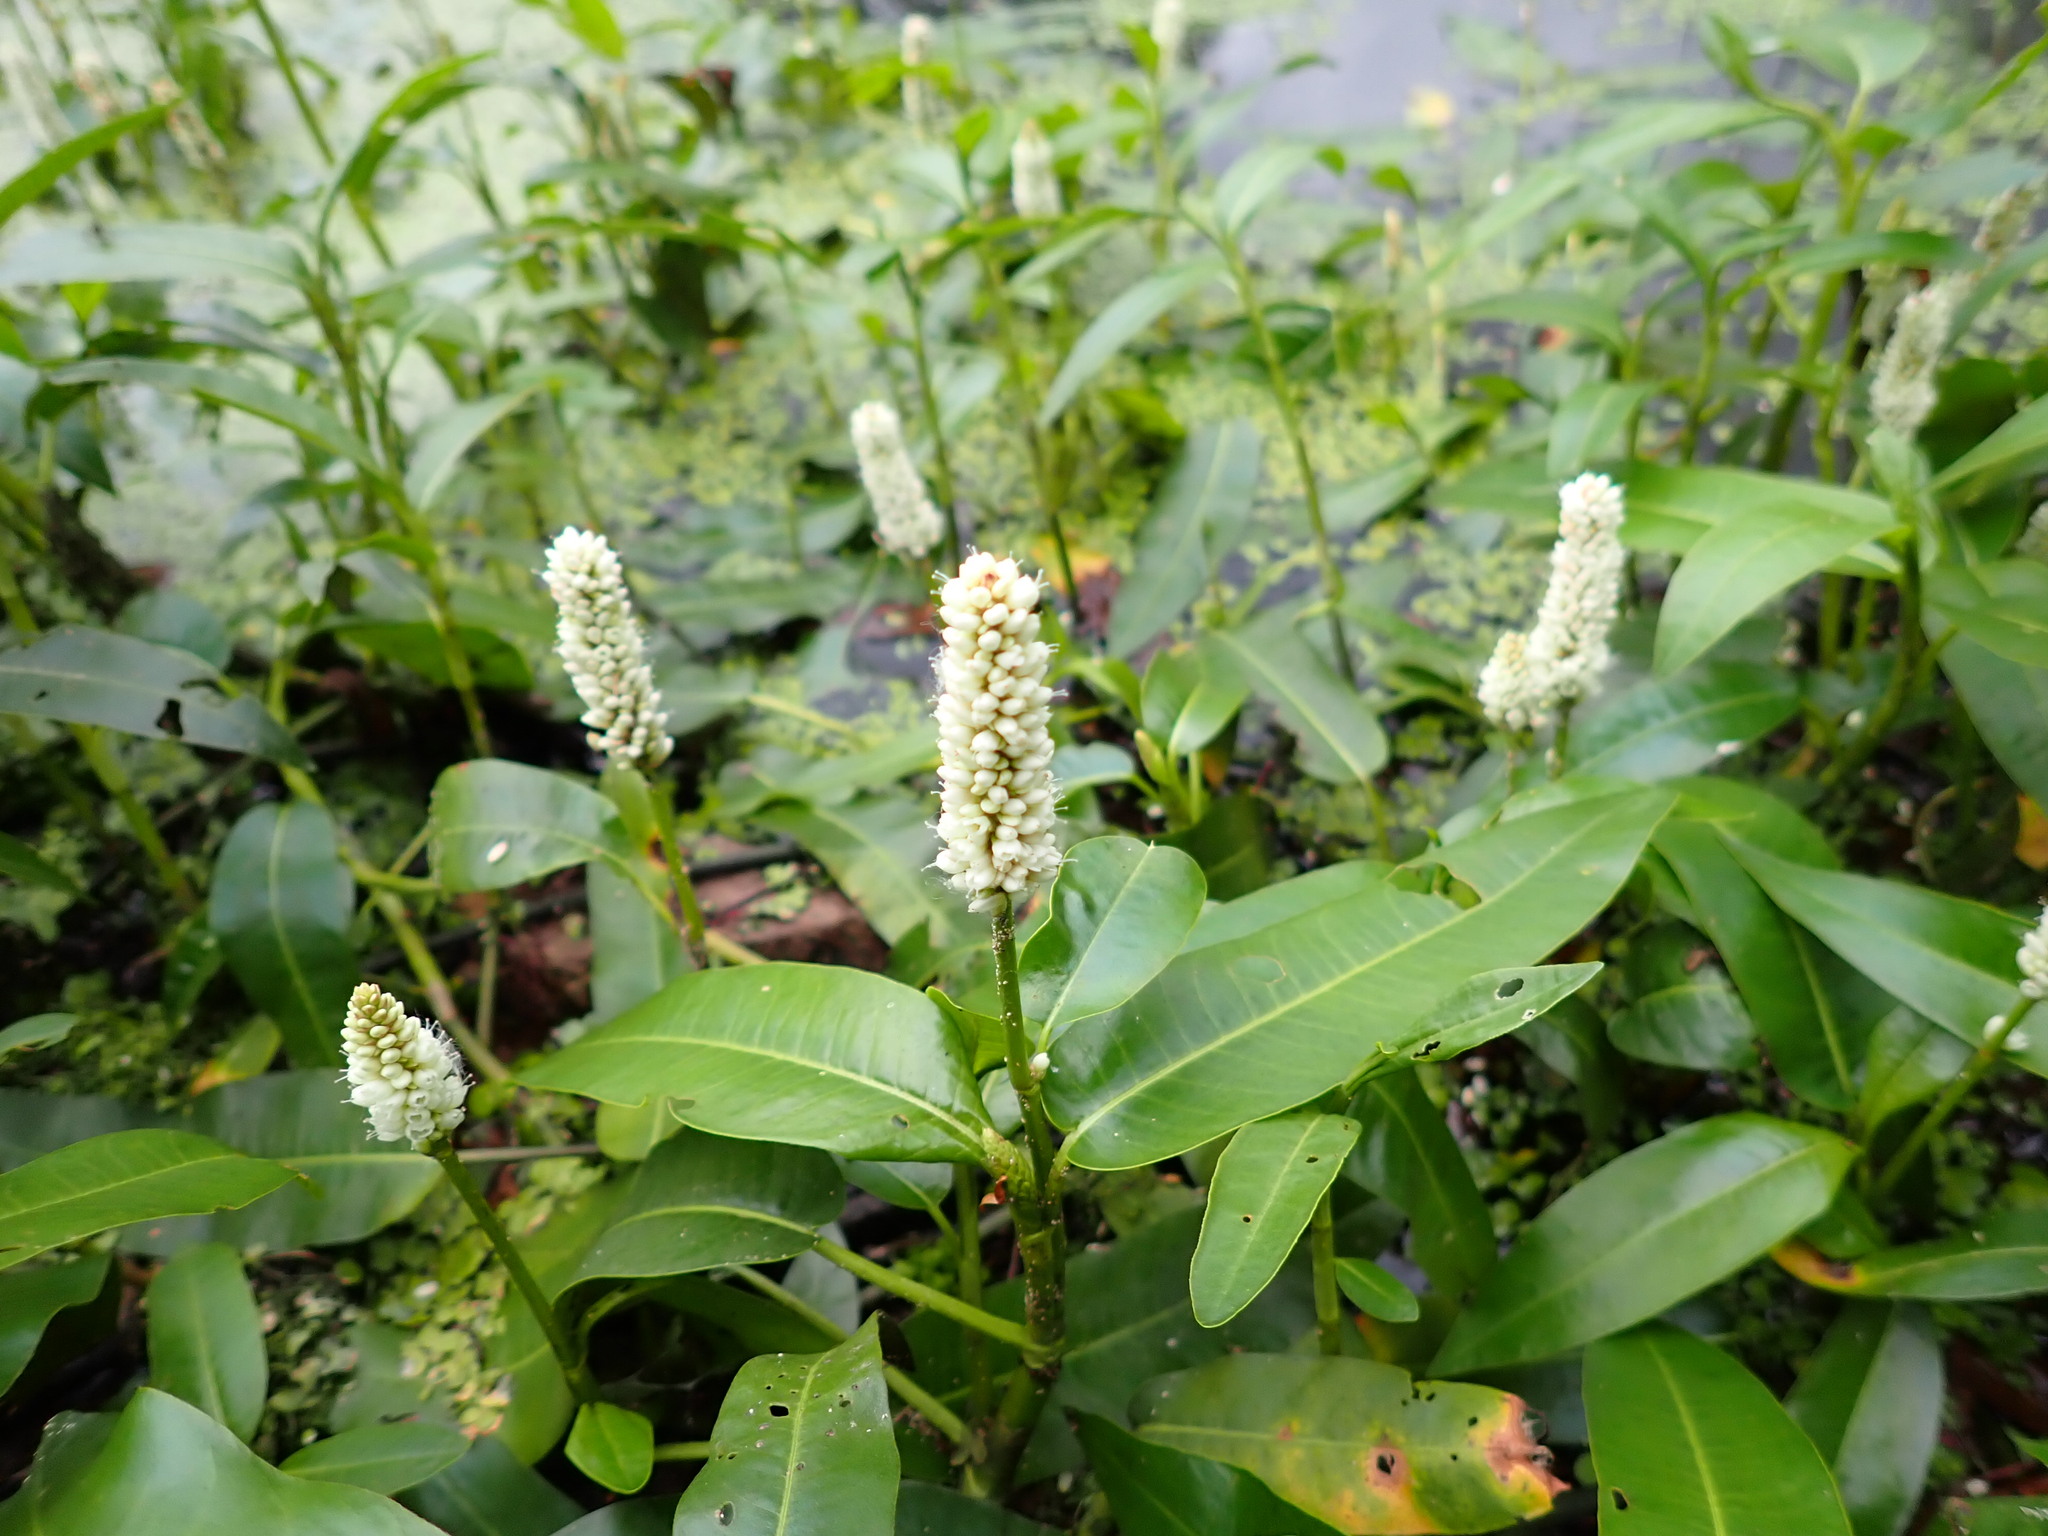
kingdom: Plantae
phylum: Tracheophyta
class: Magnoliopsida
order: Caryophyllales
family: Polygonaceae
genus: Persicaria
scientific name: Persicaria amphibia
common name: Amphibious bistort
